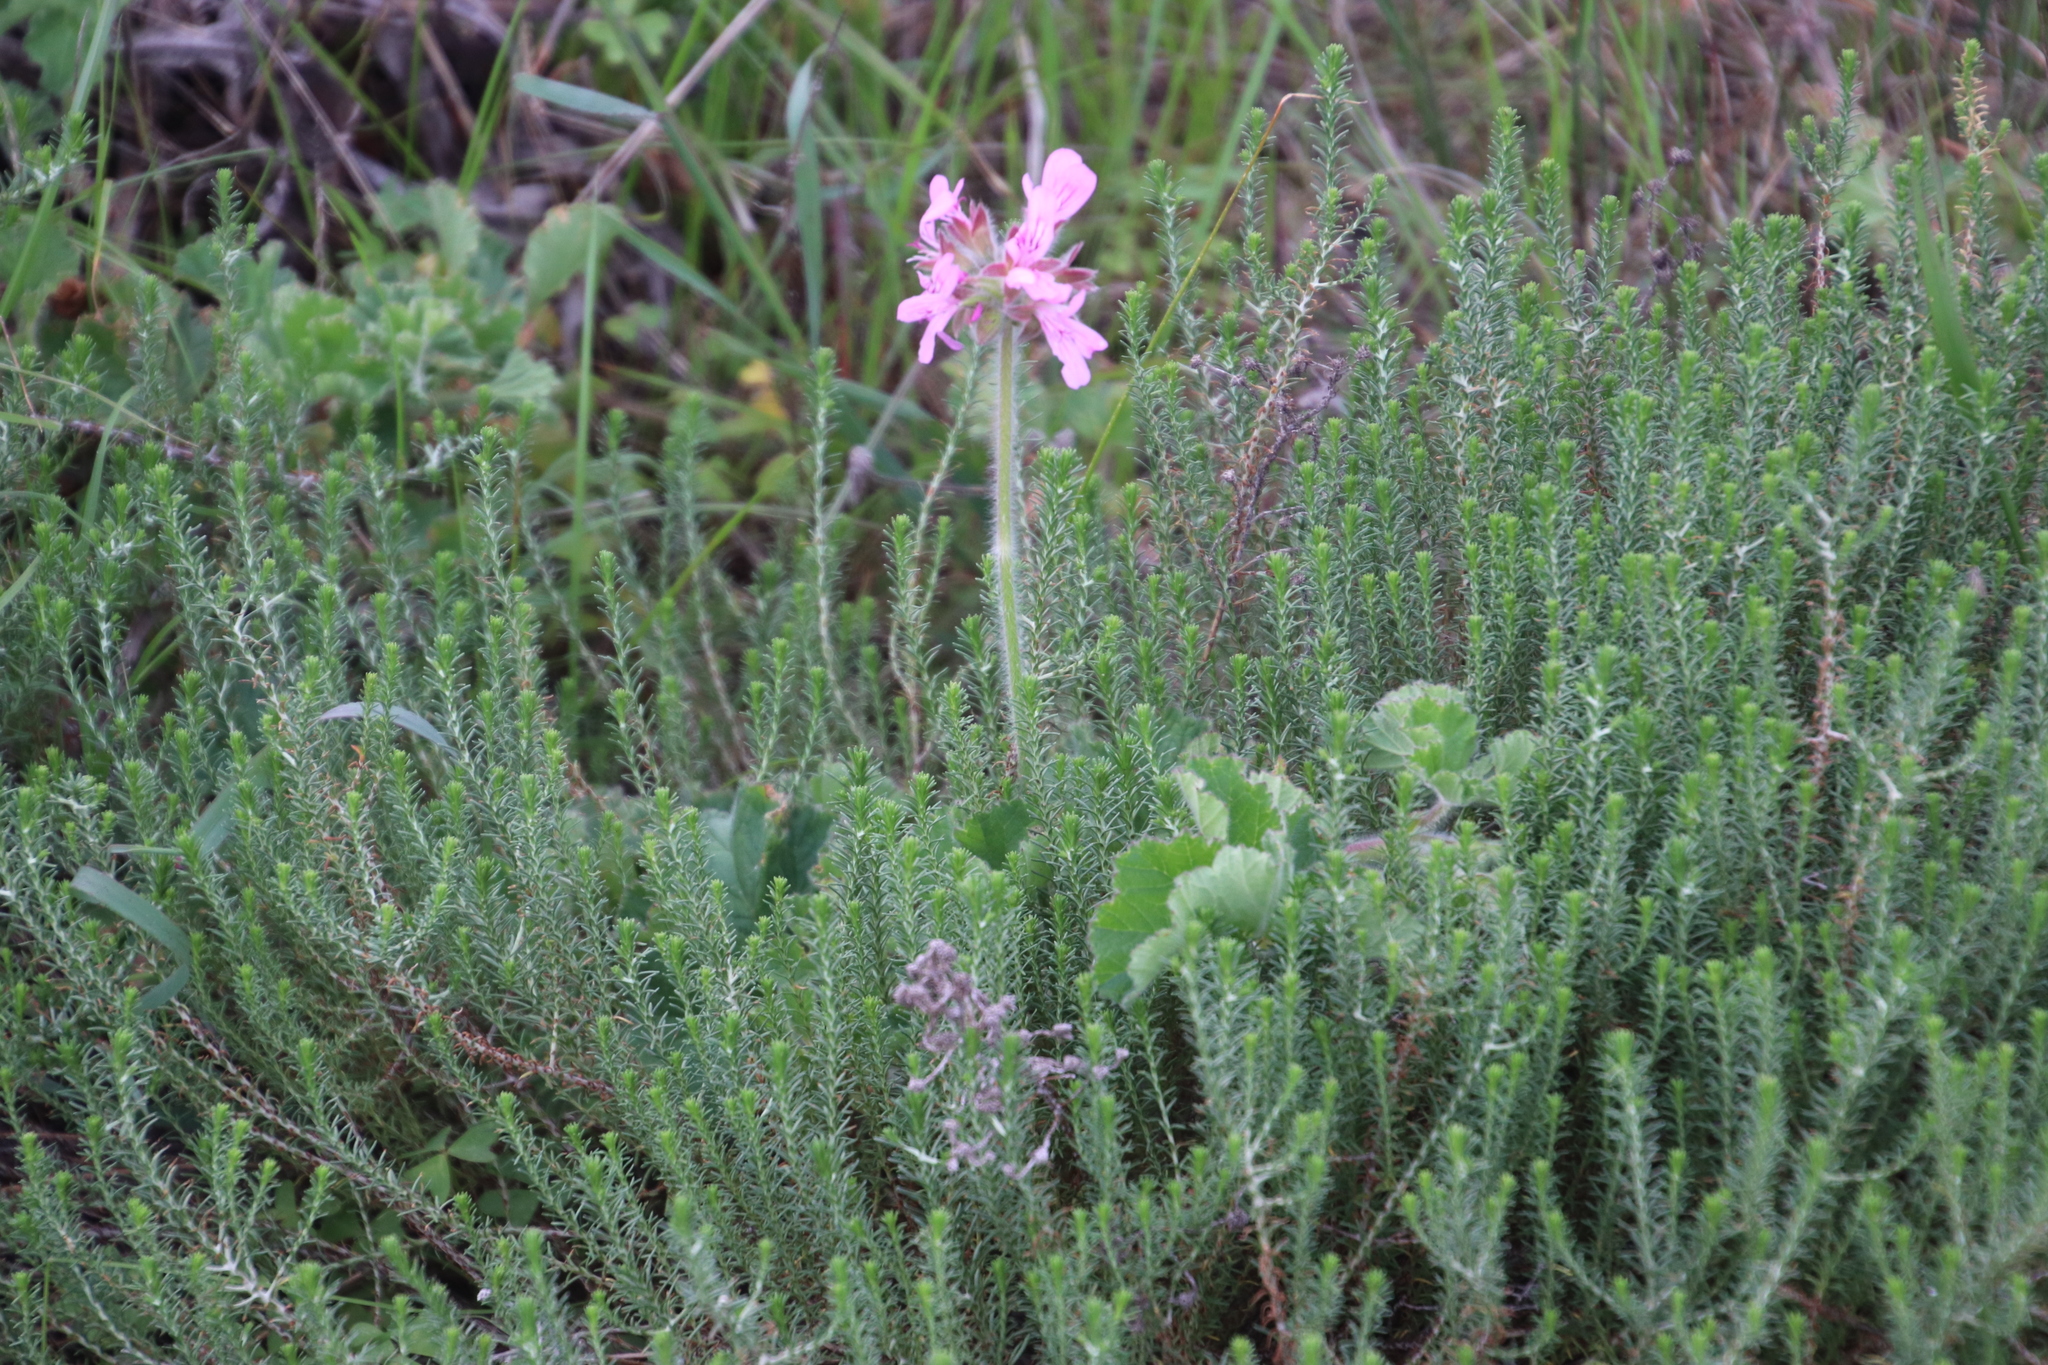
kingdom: Plantae
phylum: Tracheophyta
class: Magnoliopsida
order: Geraniales
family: Geraniaceae
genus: Pelargonium
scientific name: Pelargonium capitatum
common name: Rose scented geranium
